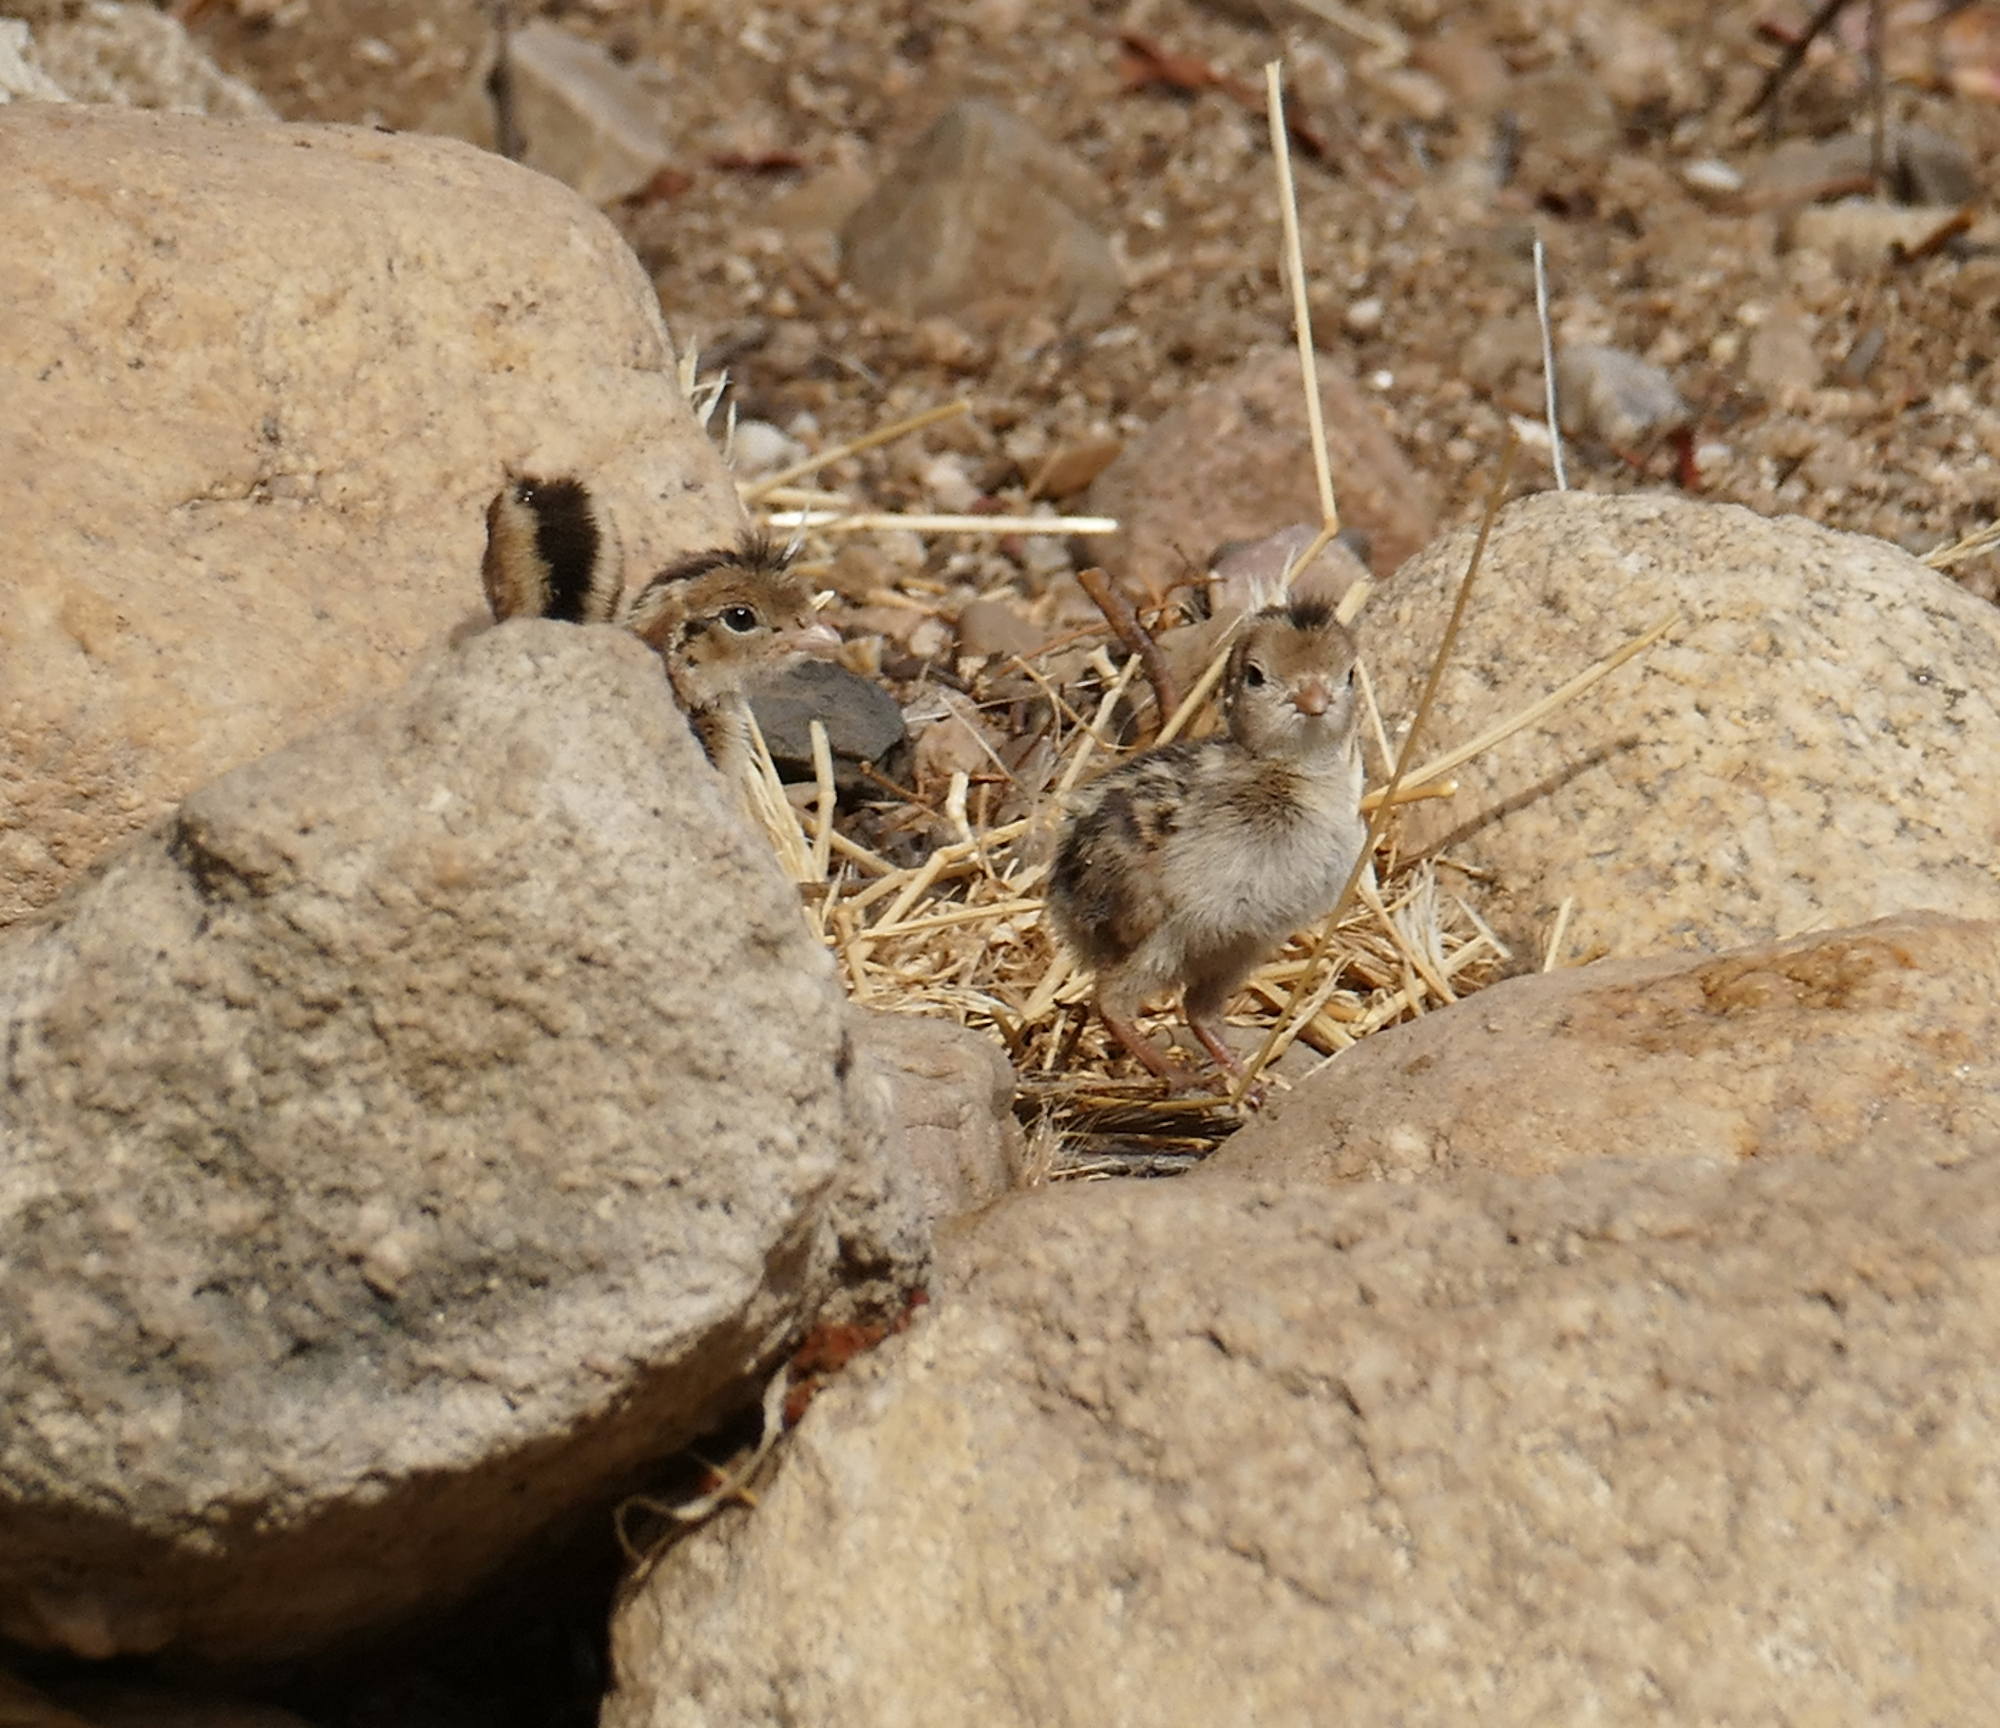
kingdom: Animalia
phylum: Chordata
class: Aves
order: Galliformes
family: Odontophoridae
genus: Callipepla
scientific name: Callipepla gambelii
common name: Gambel's quail
